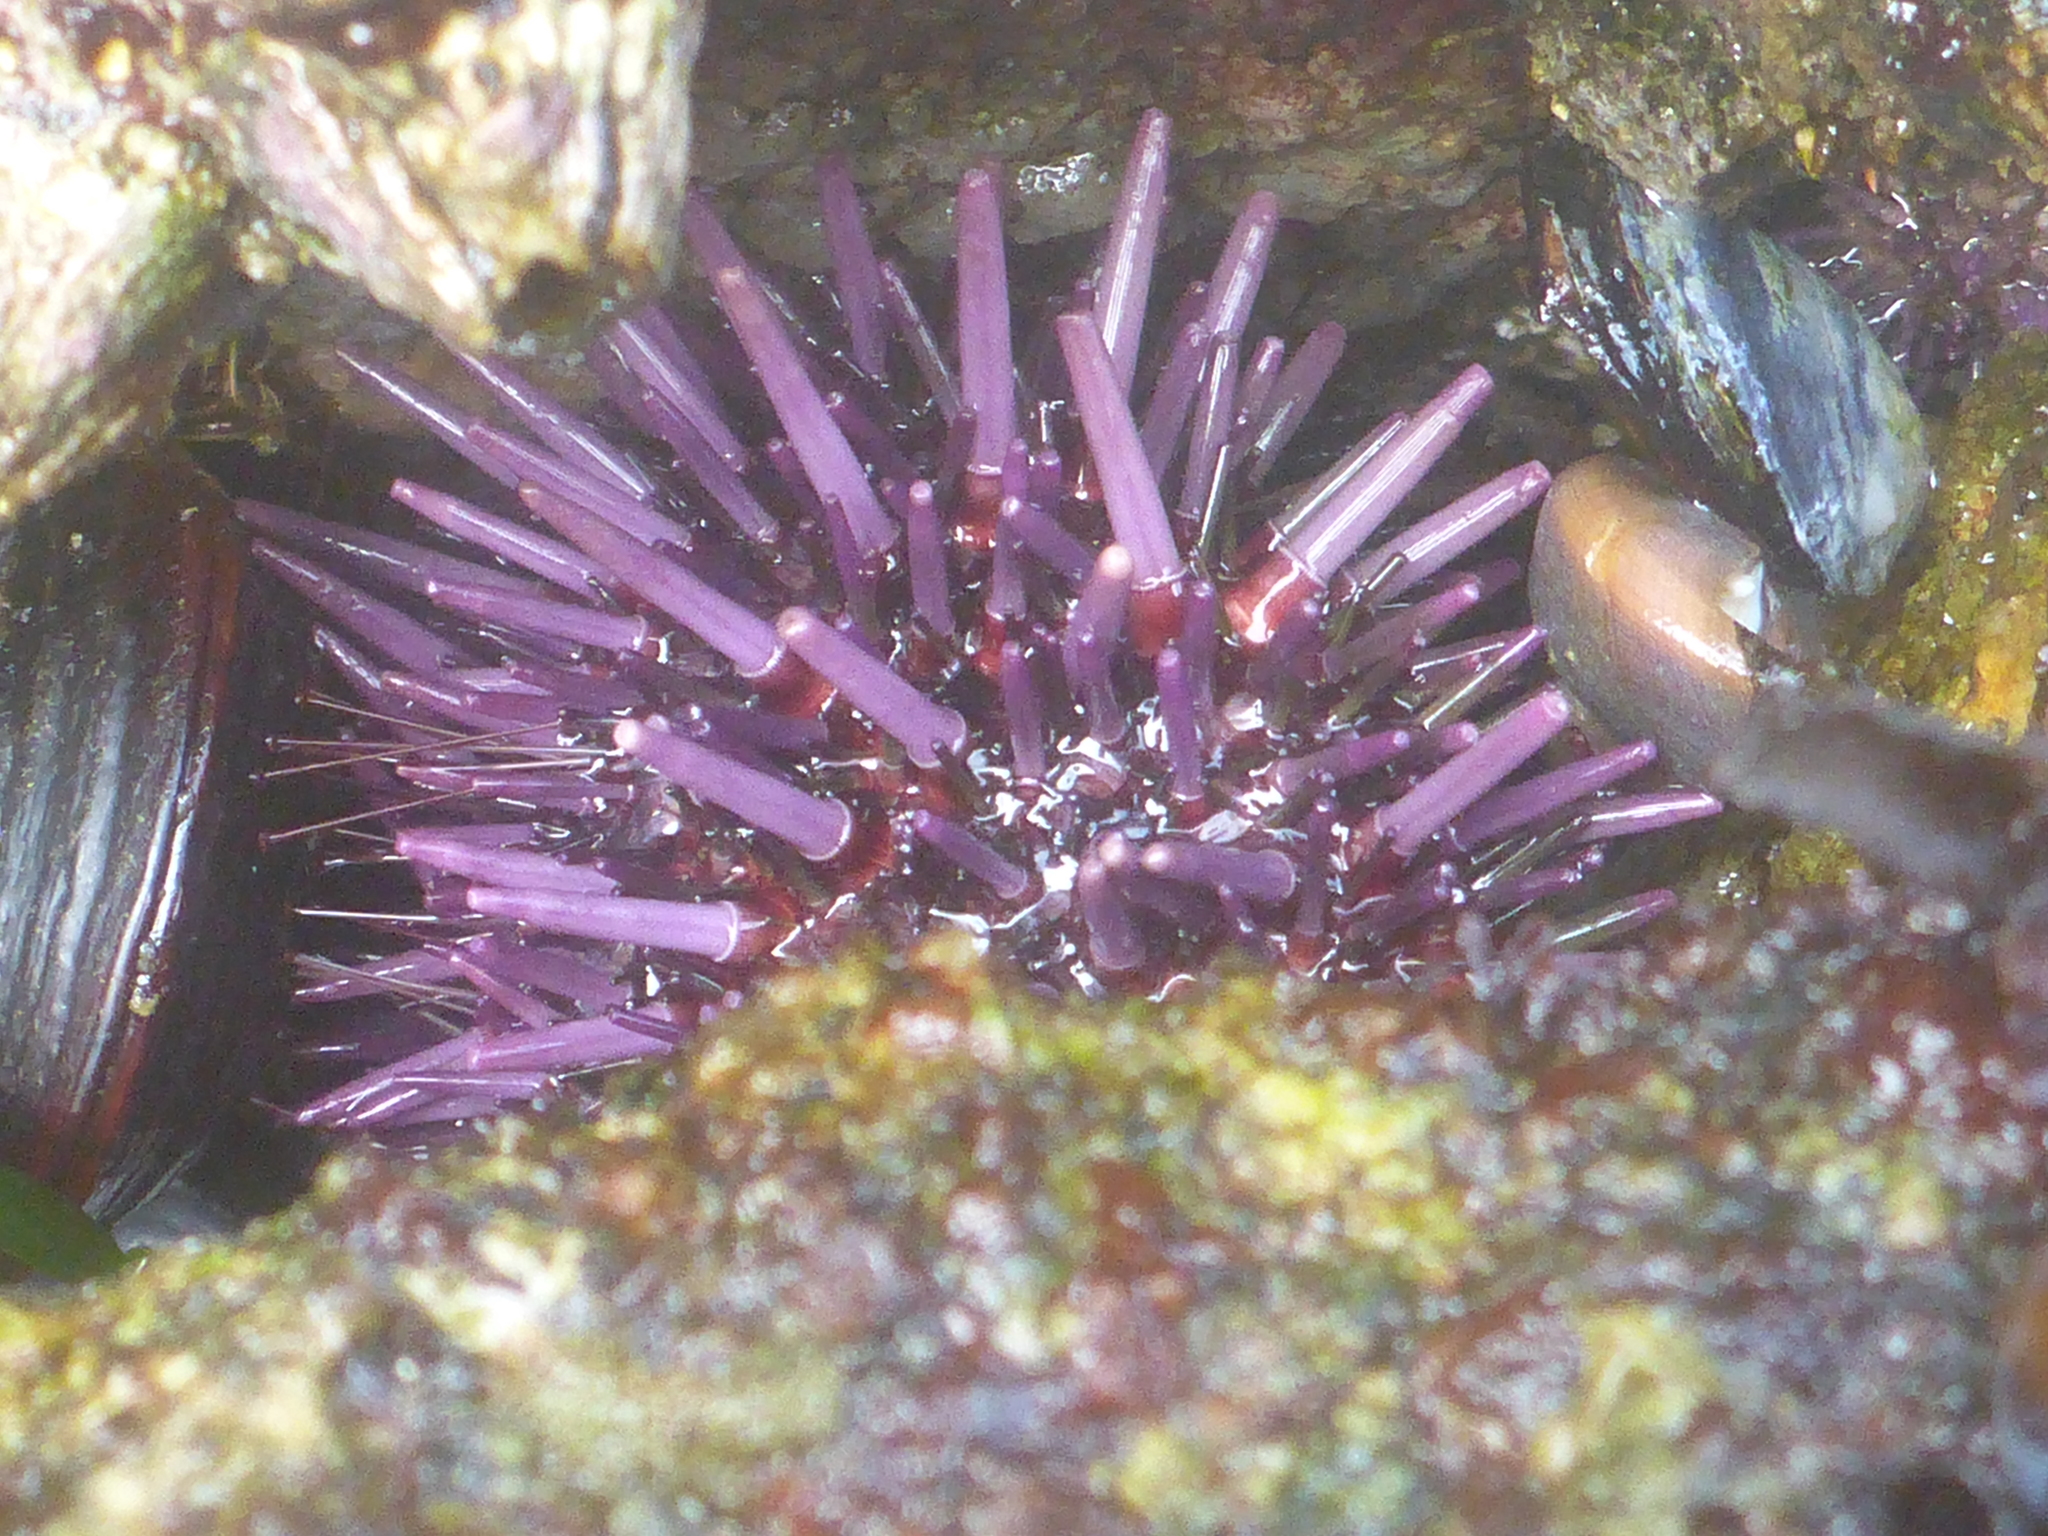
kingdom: Animalia
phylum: Echinodermata
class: Echinoidea
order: Camarodonta
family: Strongylocentrotidae
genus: Strongylocentrotus
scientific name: Strongylocentrotus purpuratus
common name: Purple sea urchin
